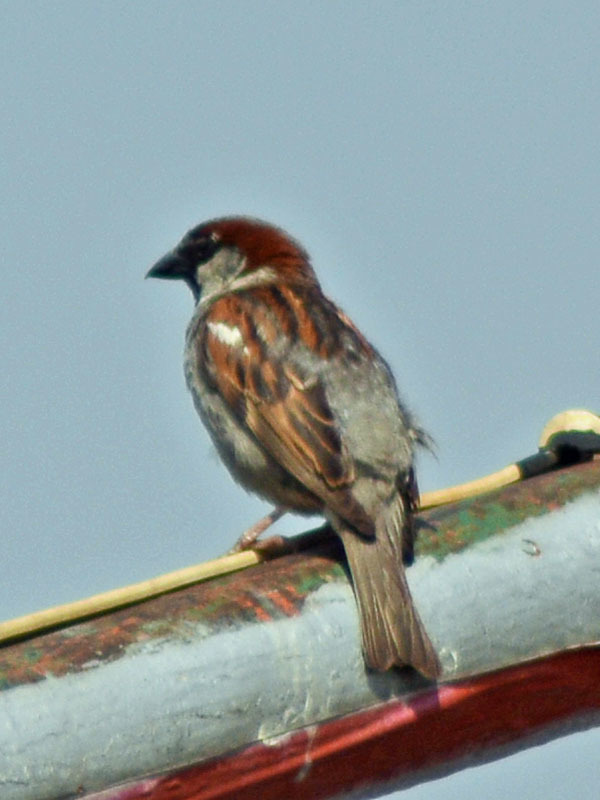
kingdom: Animalia
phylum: Chordata
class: Aves
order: Passeriformes
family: Passeridae
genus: Passer
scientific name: Passer domesticus
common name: House sparrow
